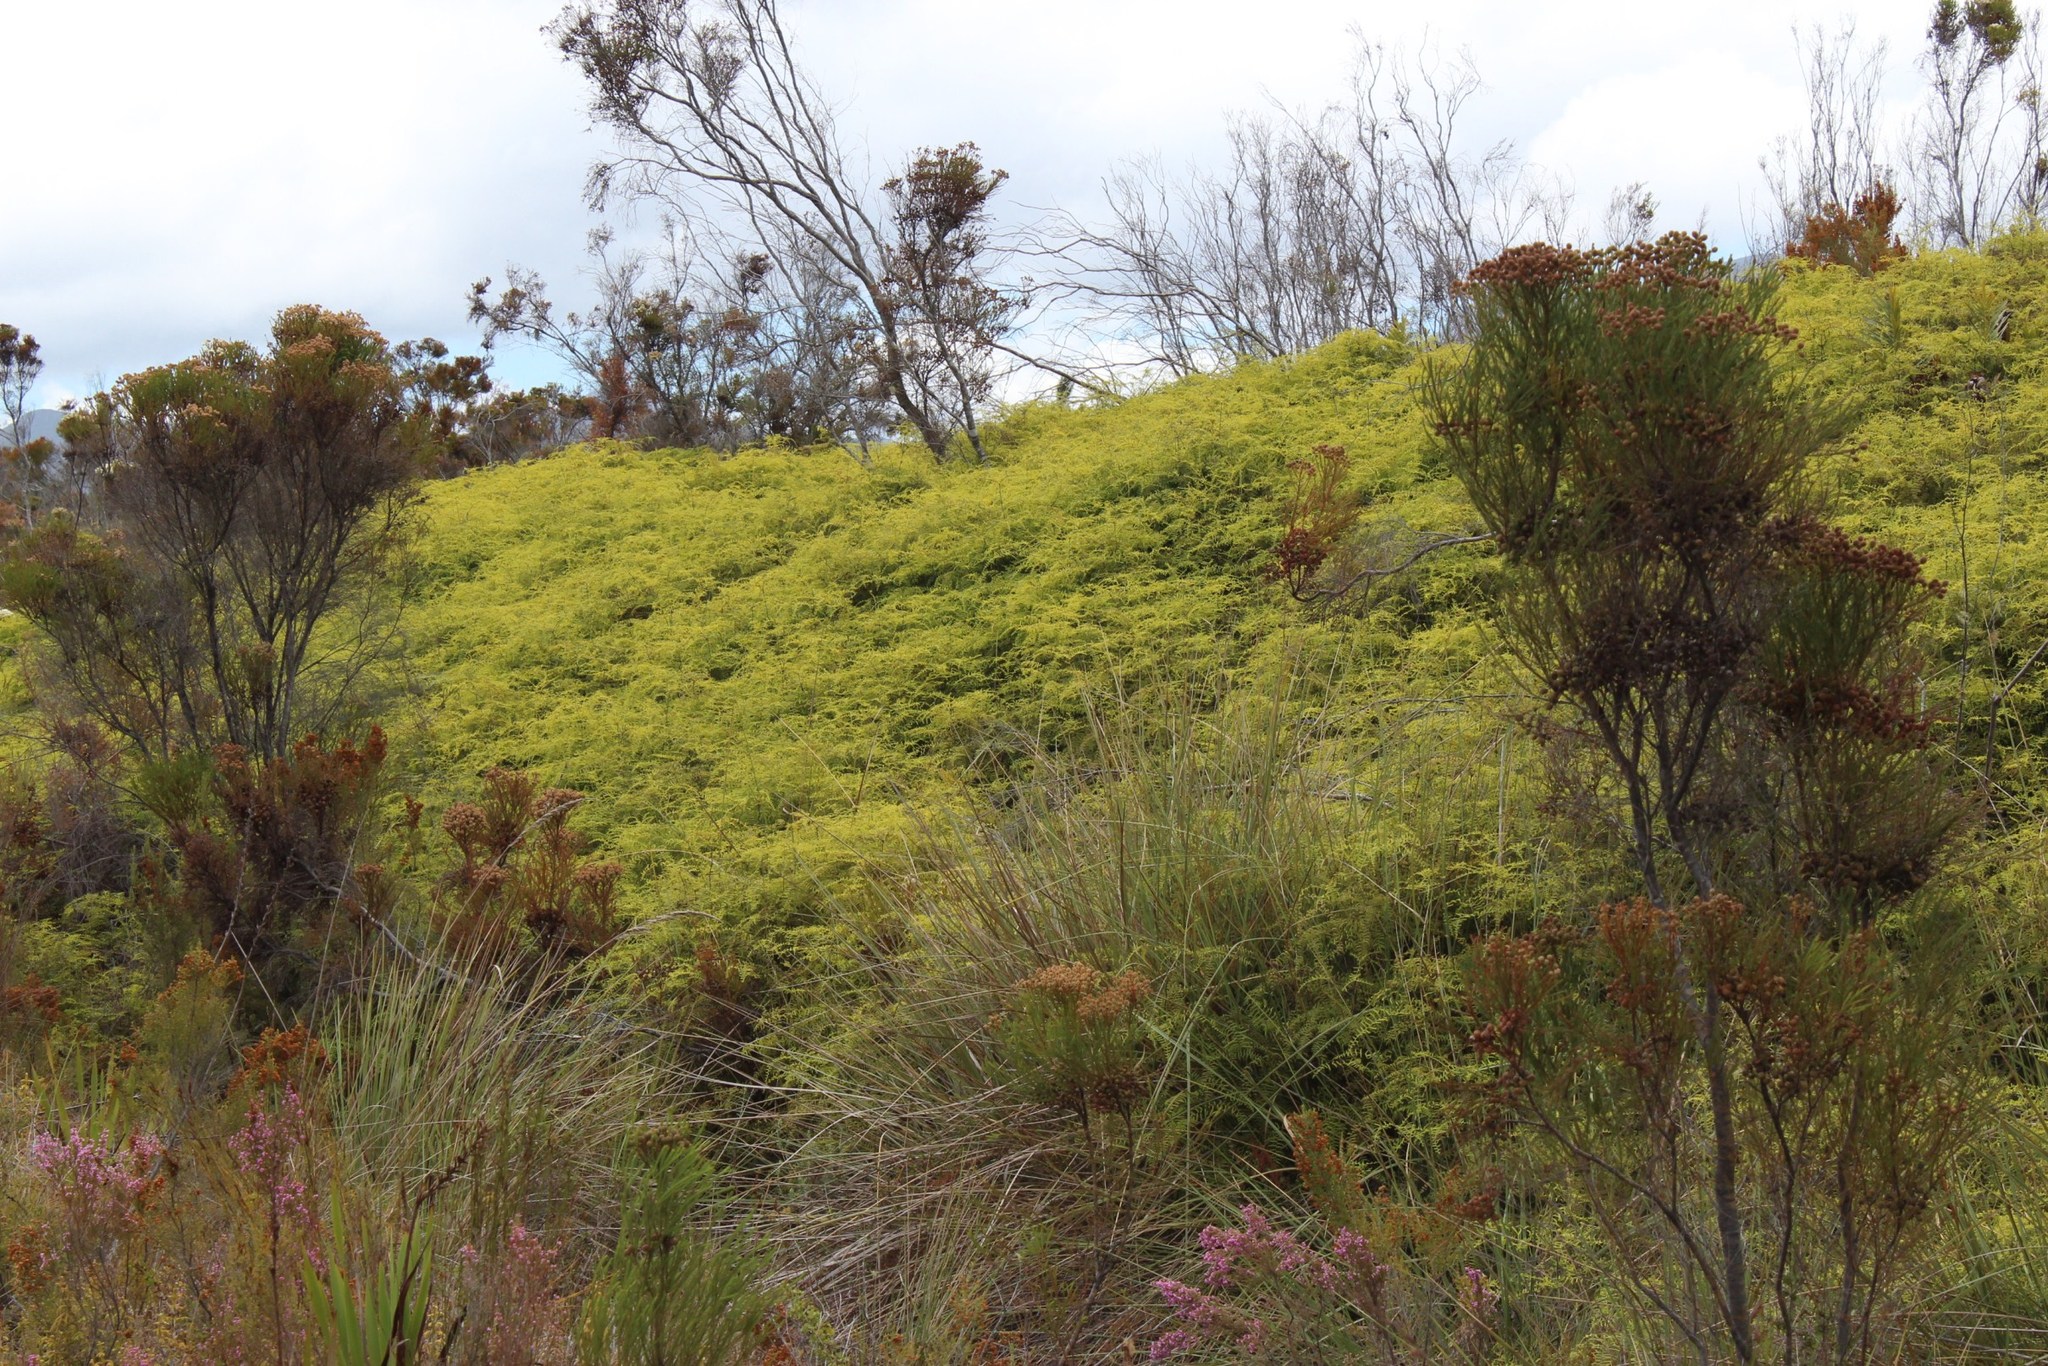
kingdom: Plantae
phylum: Tracheophyta
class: Polypodiopsida
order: Gleicheniales
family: Gleicheniaceae
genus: Gleichenia
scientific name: Gleichenia polypodioides
